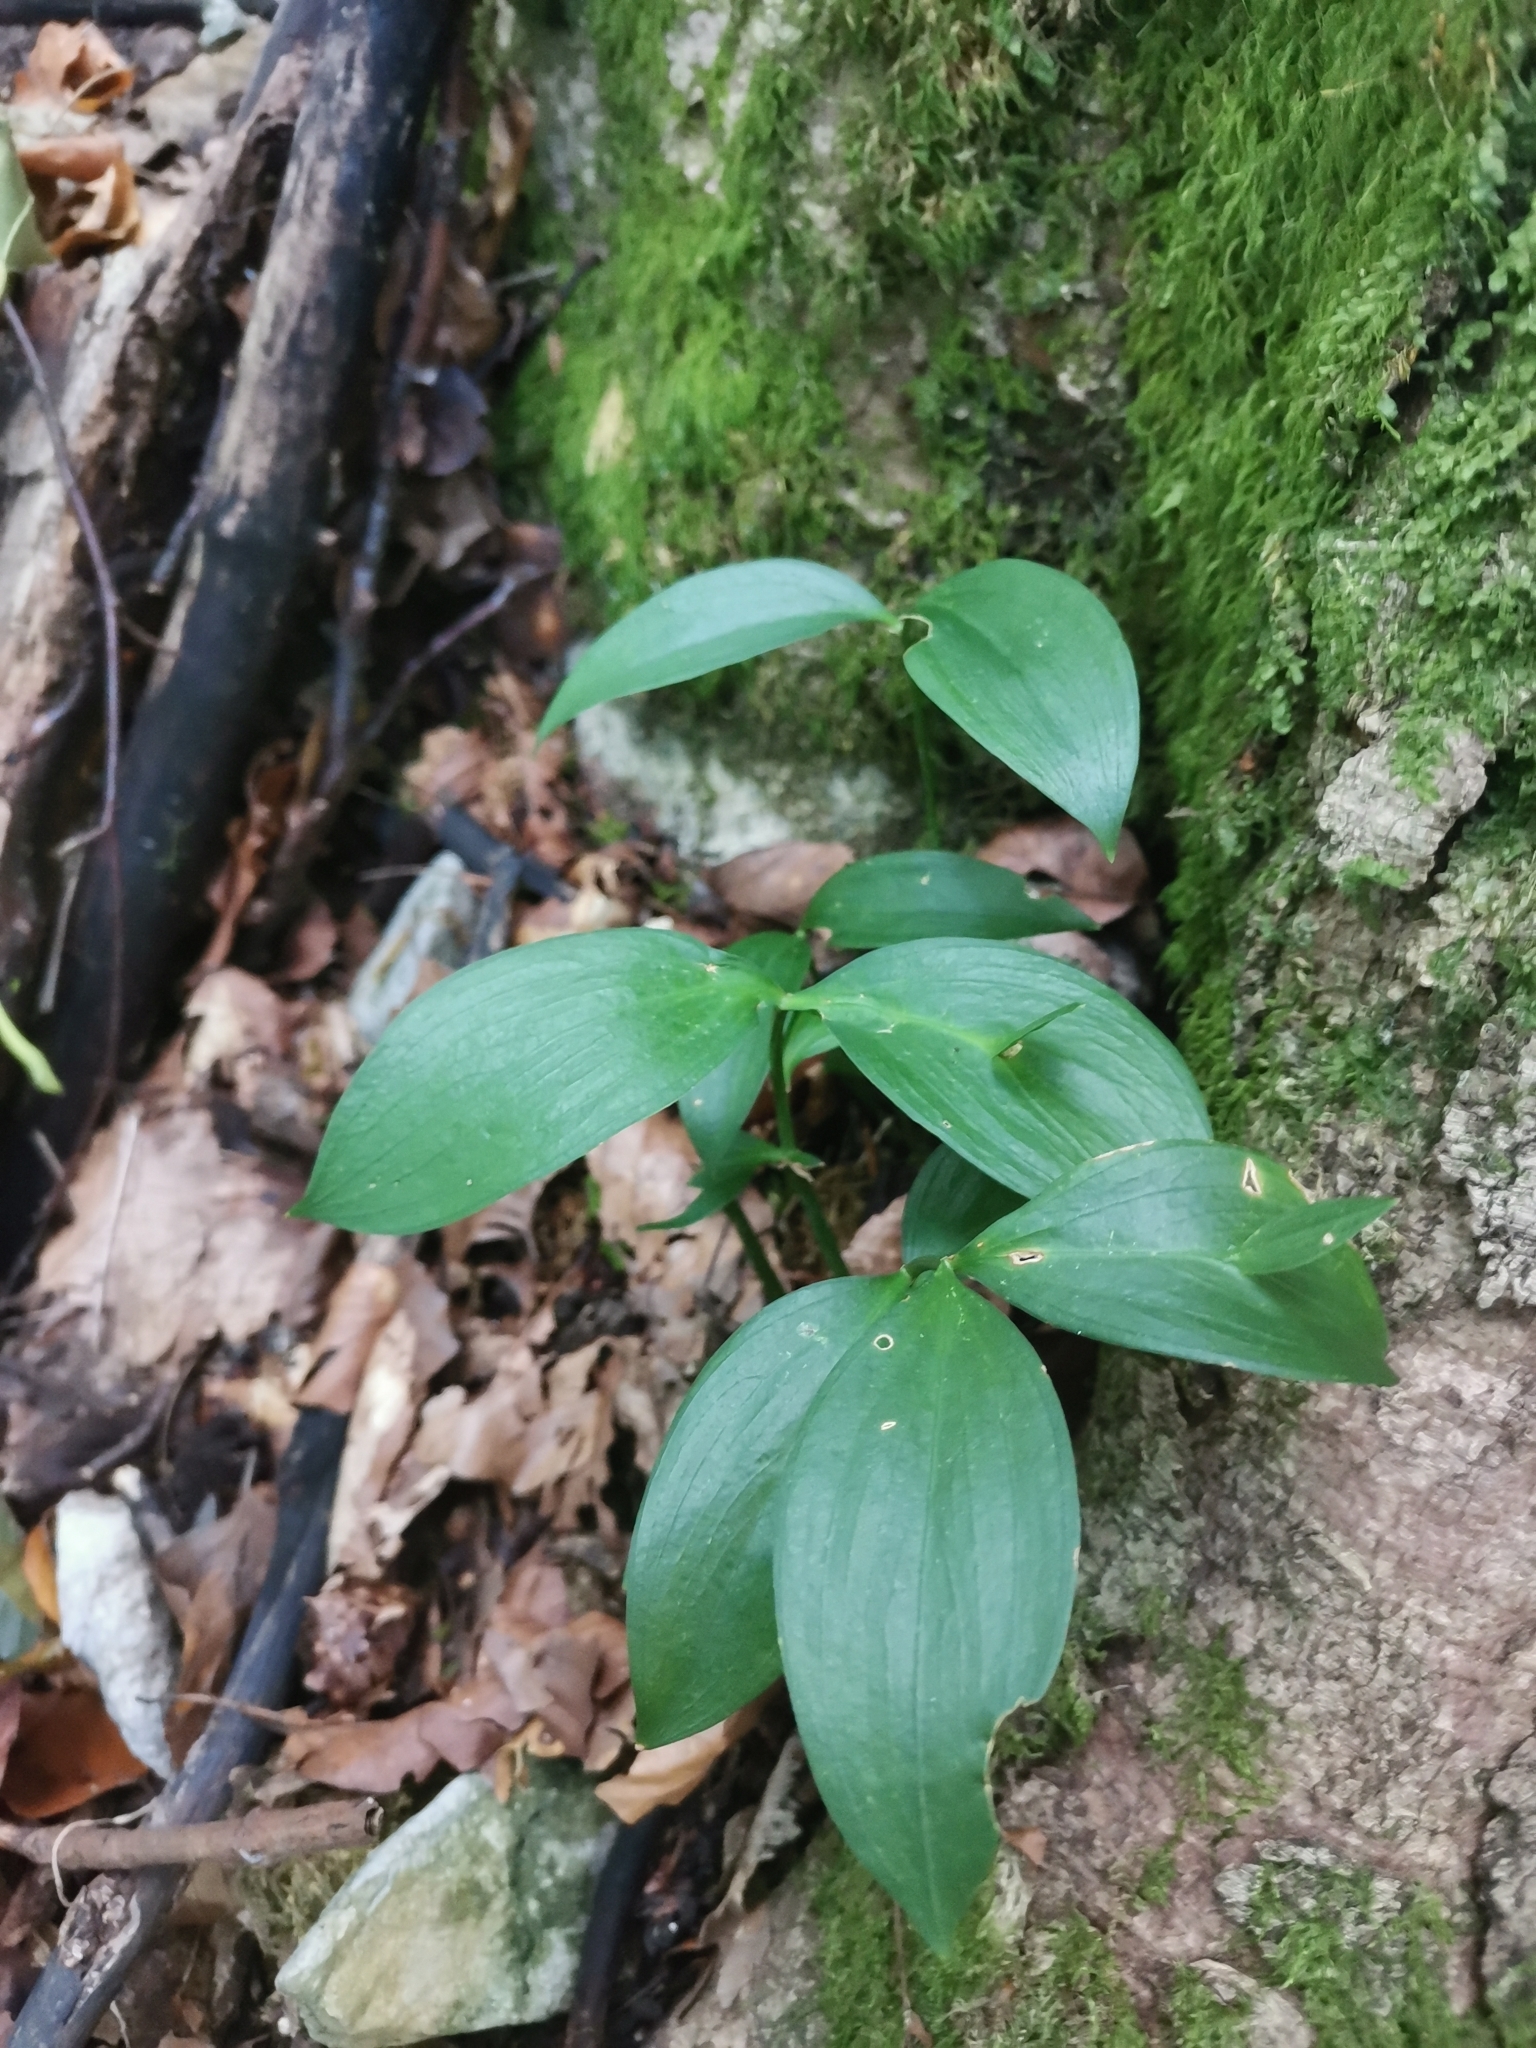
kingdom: Plantae
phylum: Tracheophyta
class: Liliopsida
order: Asparagales
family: Asparagaceae
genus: Ruscus
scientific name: Ruscus hypoglossum
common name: Spineless butcher's-broom
